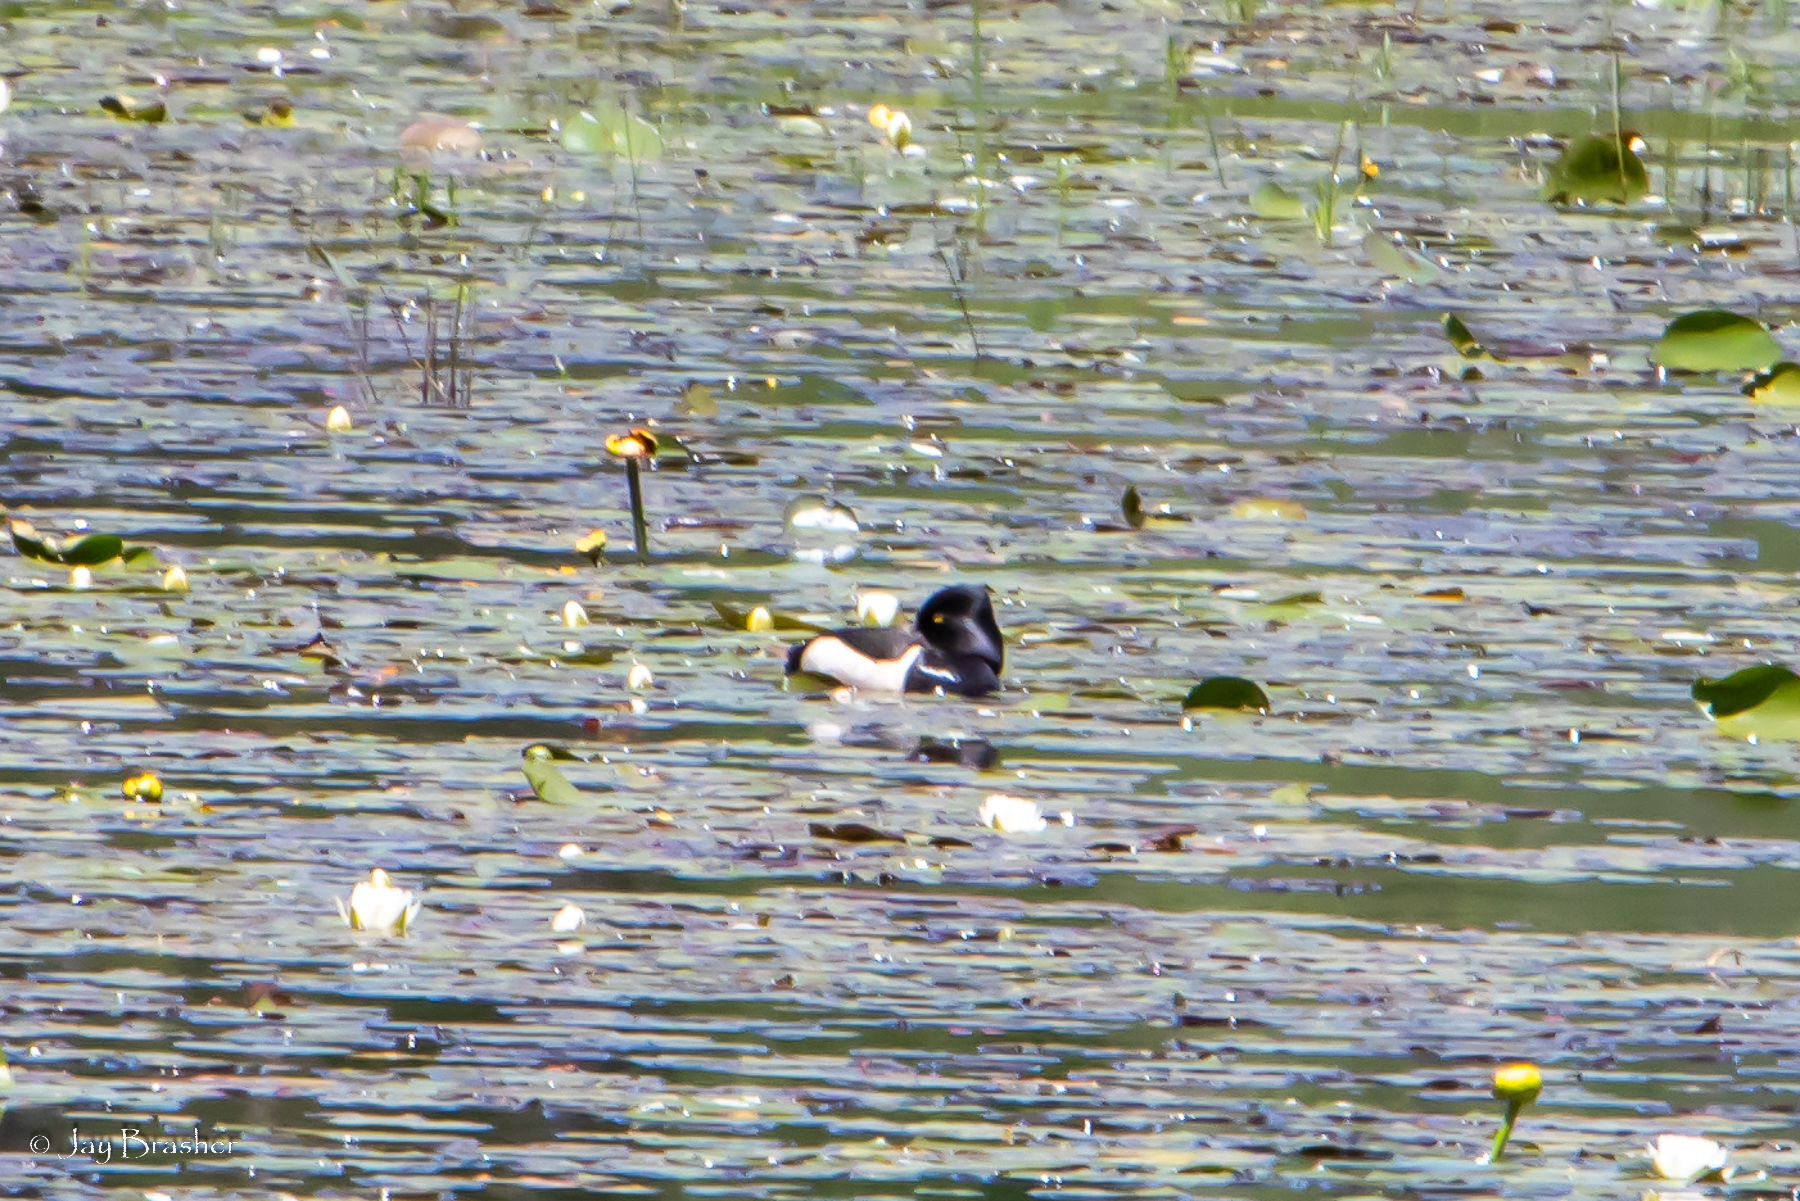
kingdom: Animalia
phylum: Chordata
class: Aves
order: Anseriformes
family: Anatidae
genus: Aythya
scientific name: Aythya collaris
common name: Ring-necked duck
